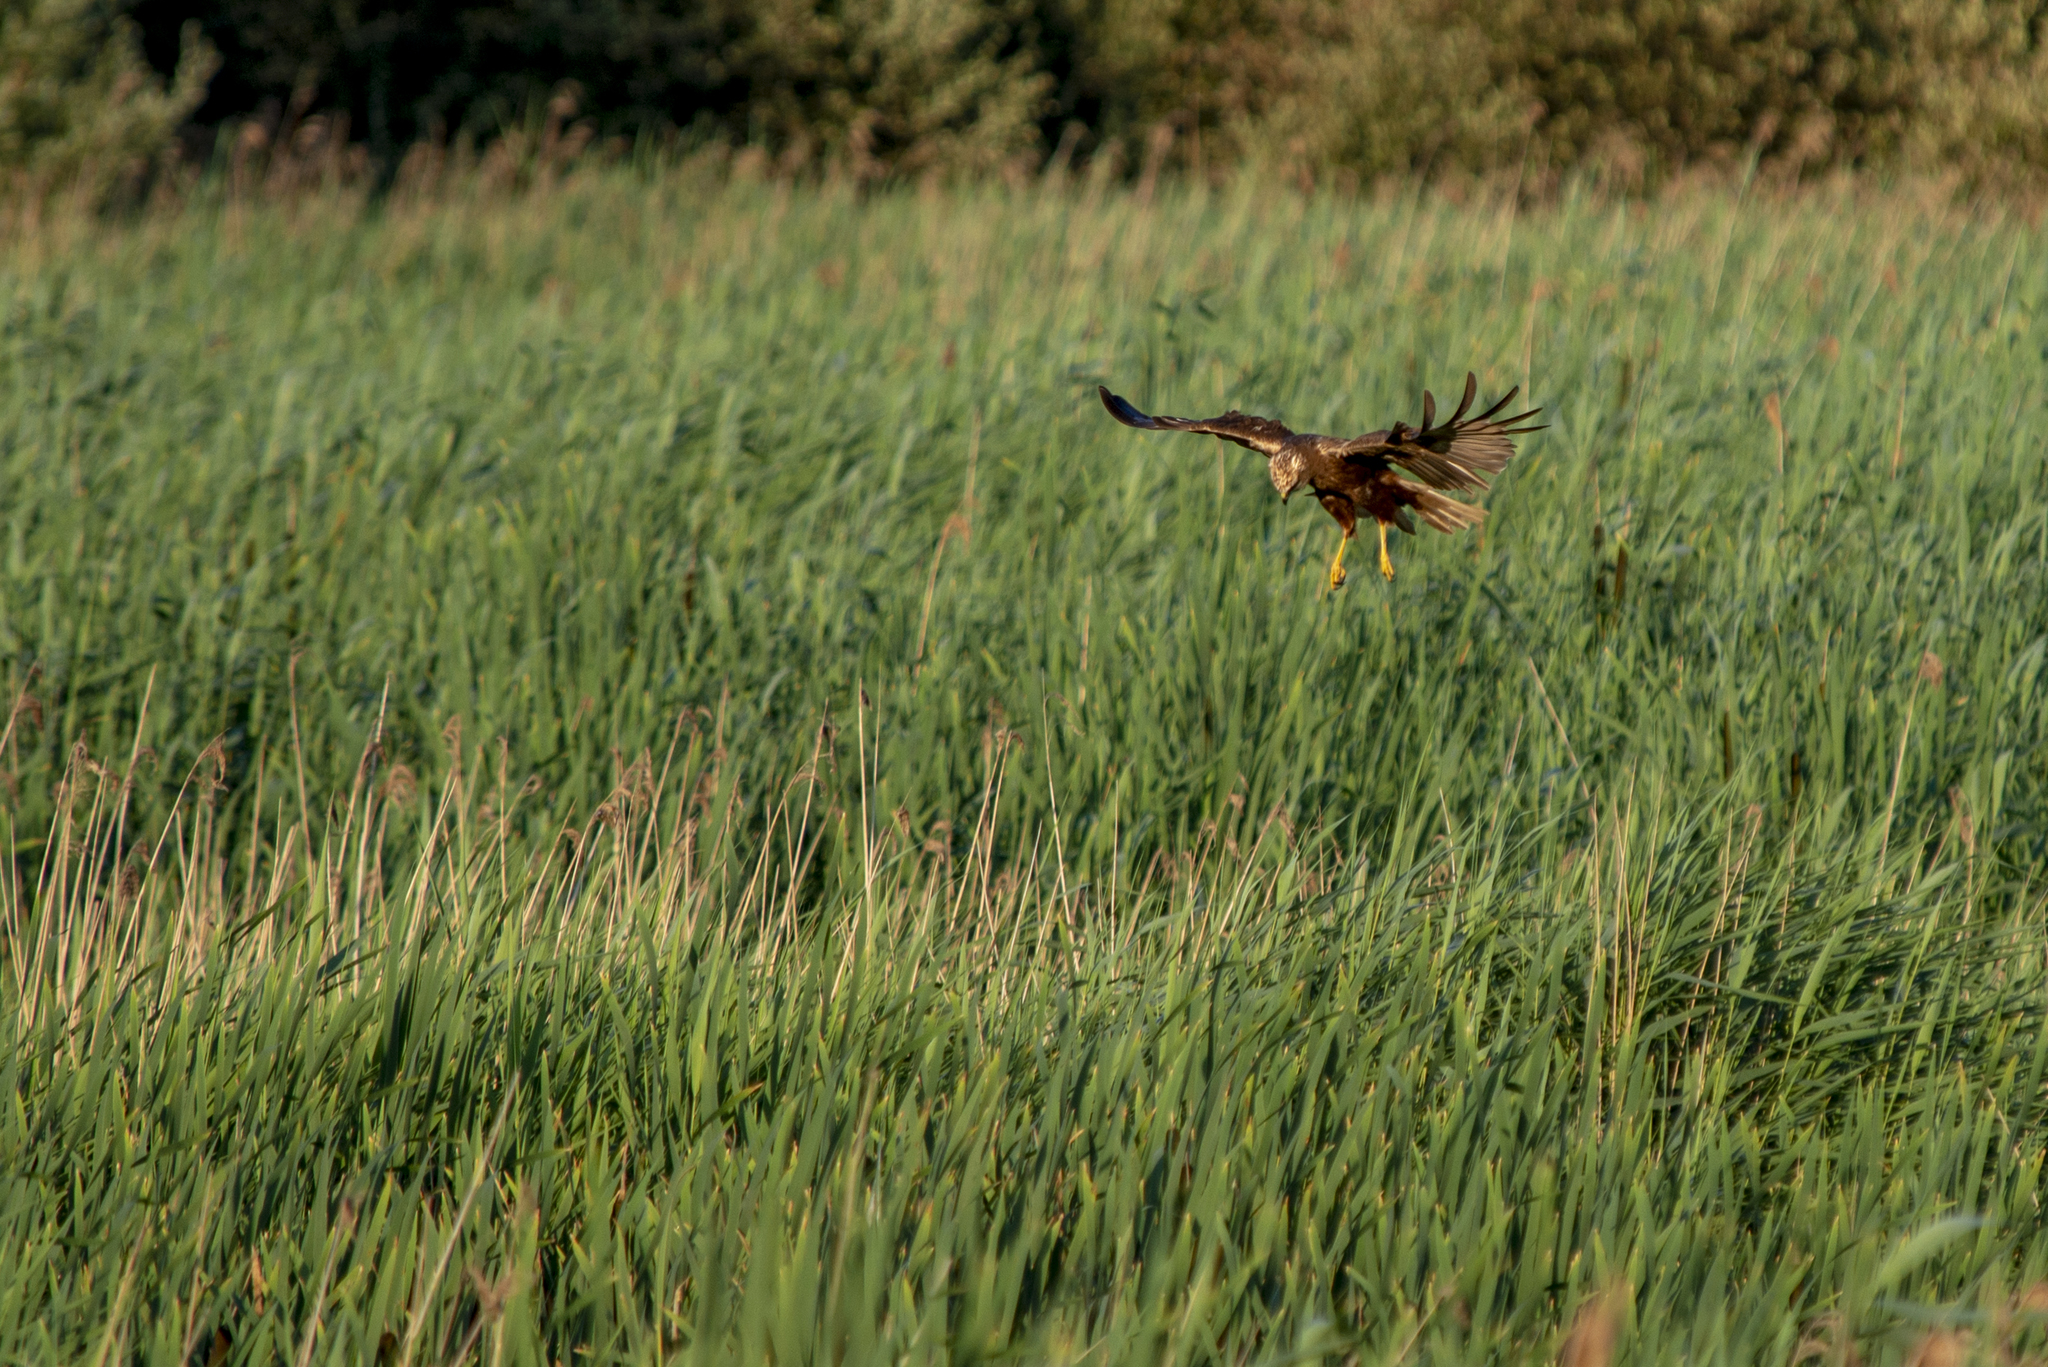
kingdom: Animalia
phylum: Chordata
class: Aves
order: Accipitriformes
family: Accipitridae
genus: Circus
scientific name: Circus aeruginosus
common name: Western marsh harrier
